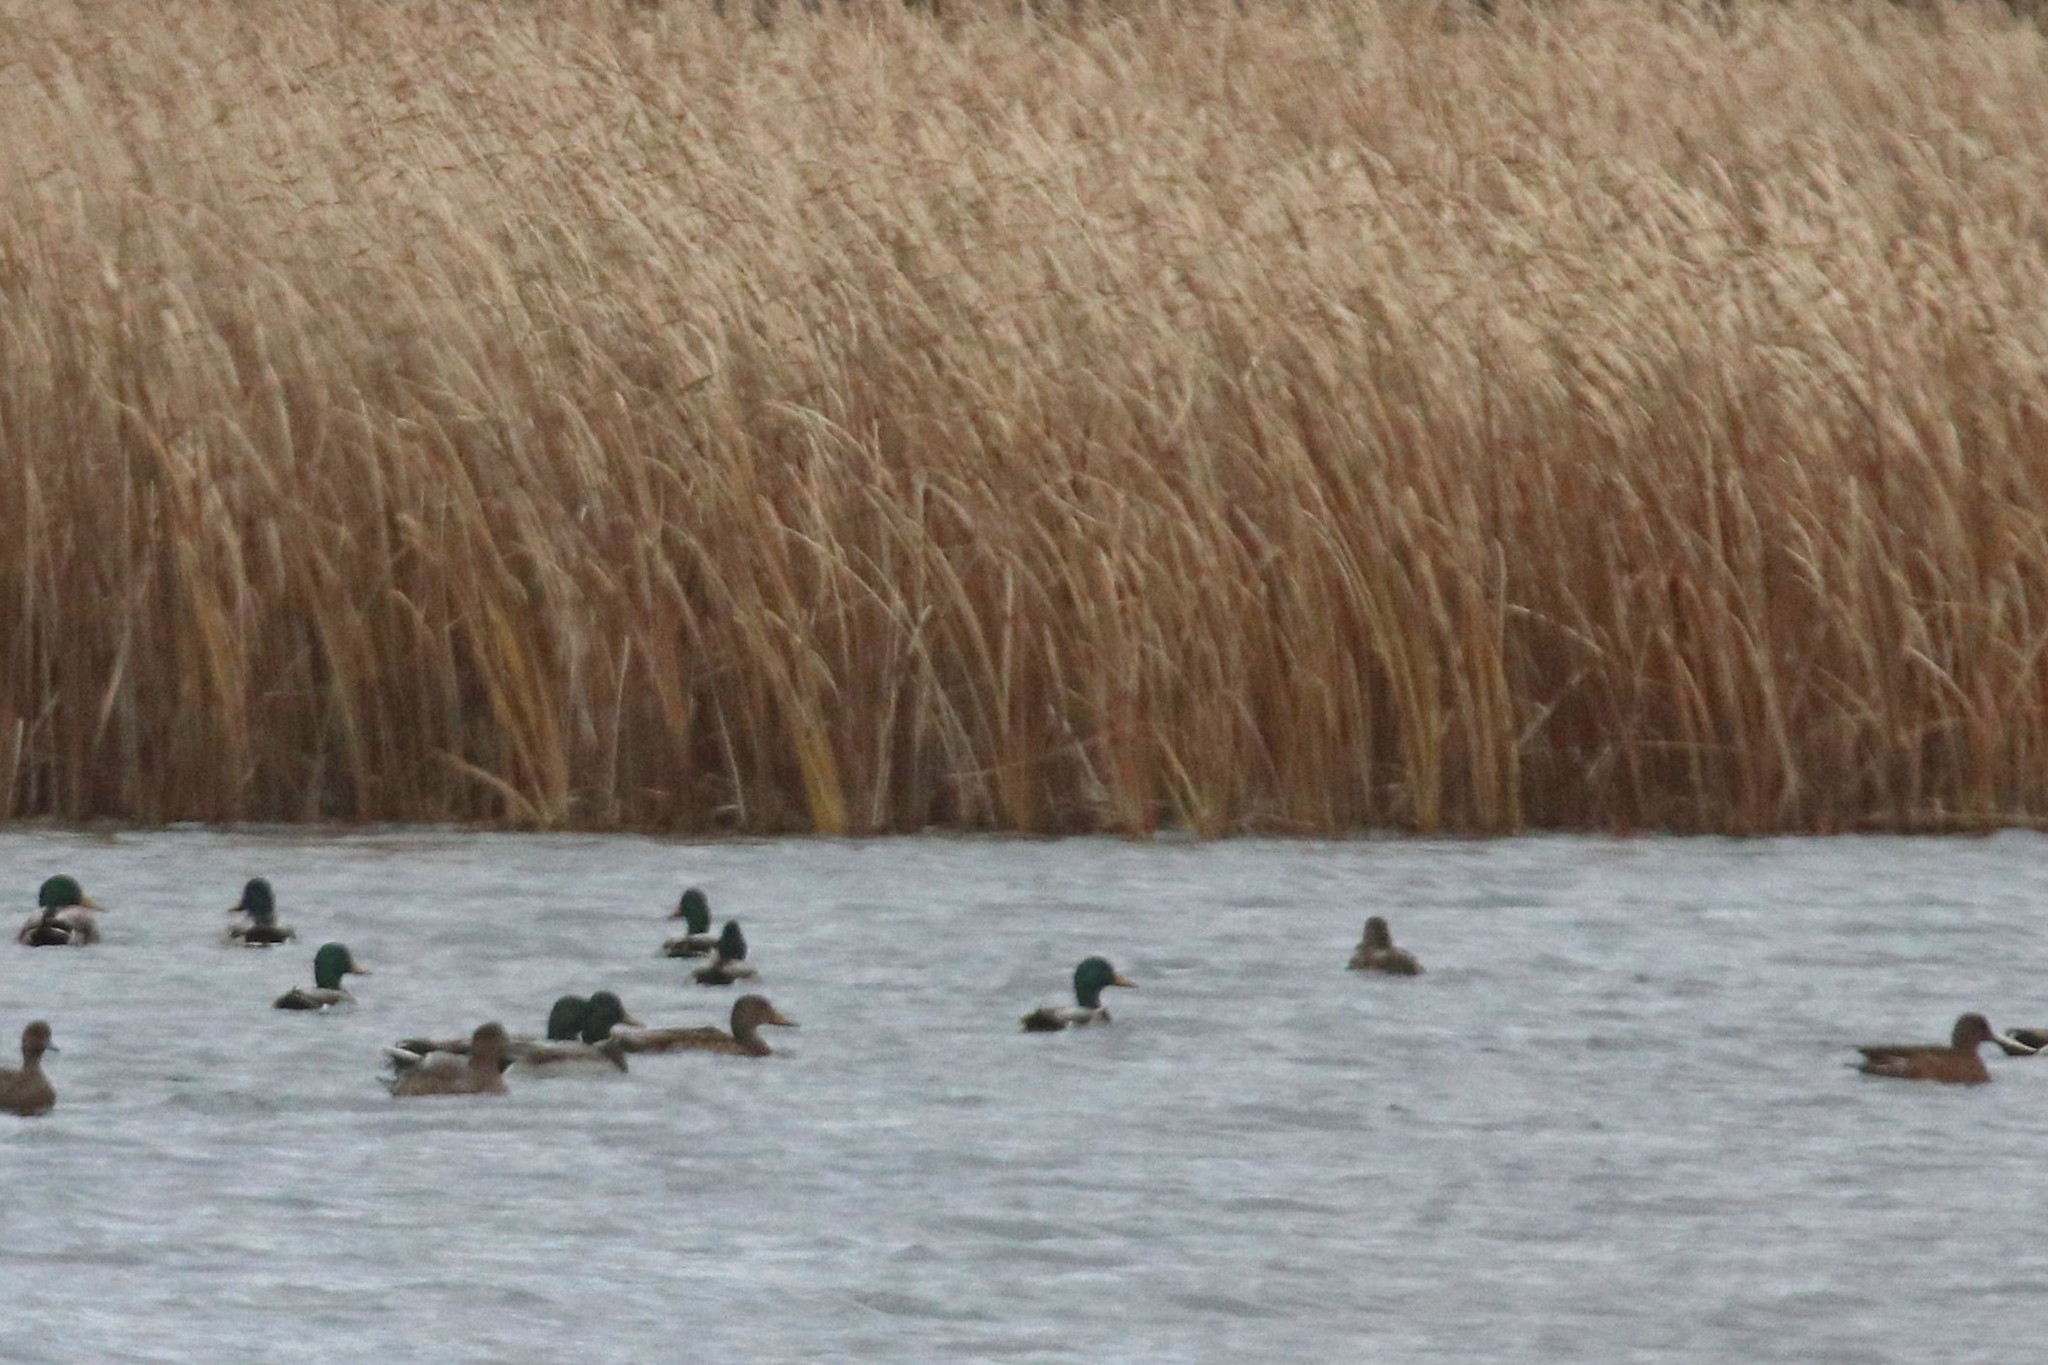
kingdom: Animalia
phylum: Chordata
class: Aves
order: Anseriformes
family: Anatidae
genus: Anas
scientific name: Anas platyrhynchos
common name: Mallard
